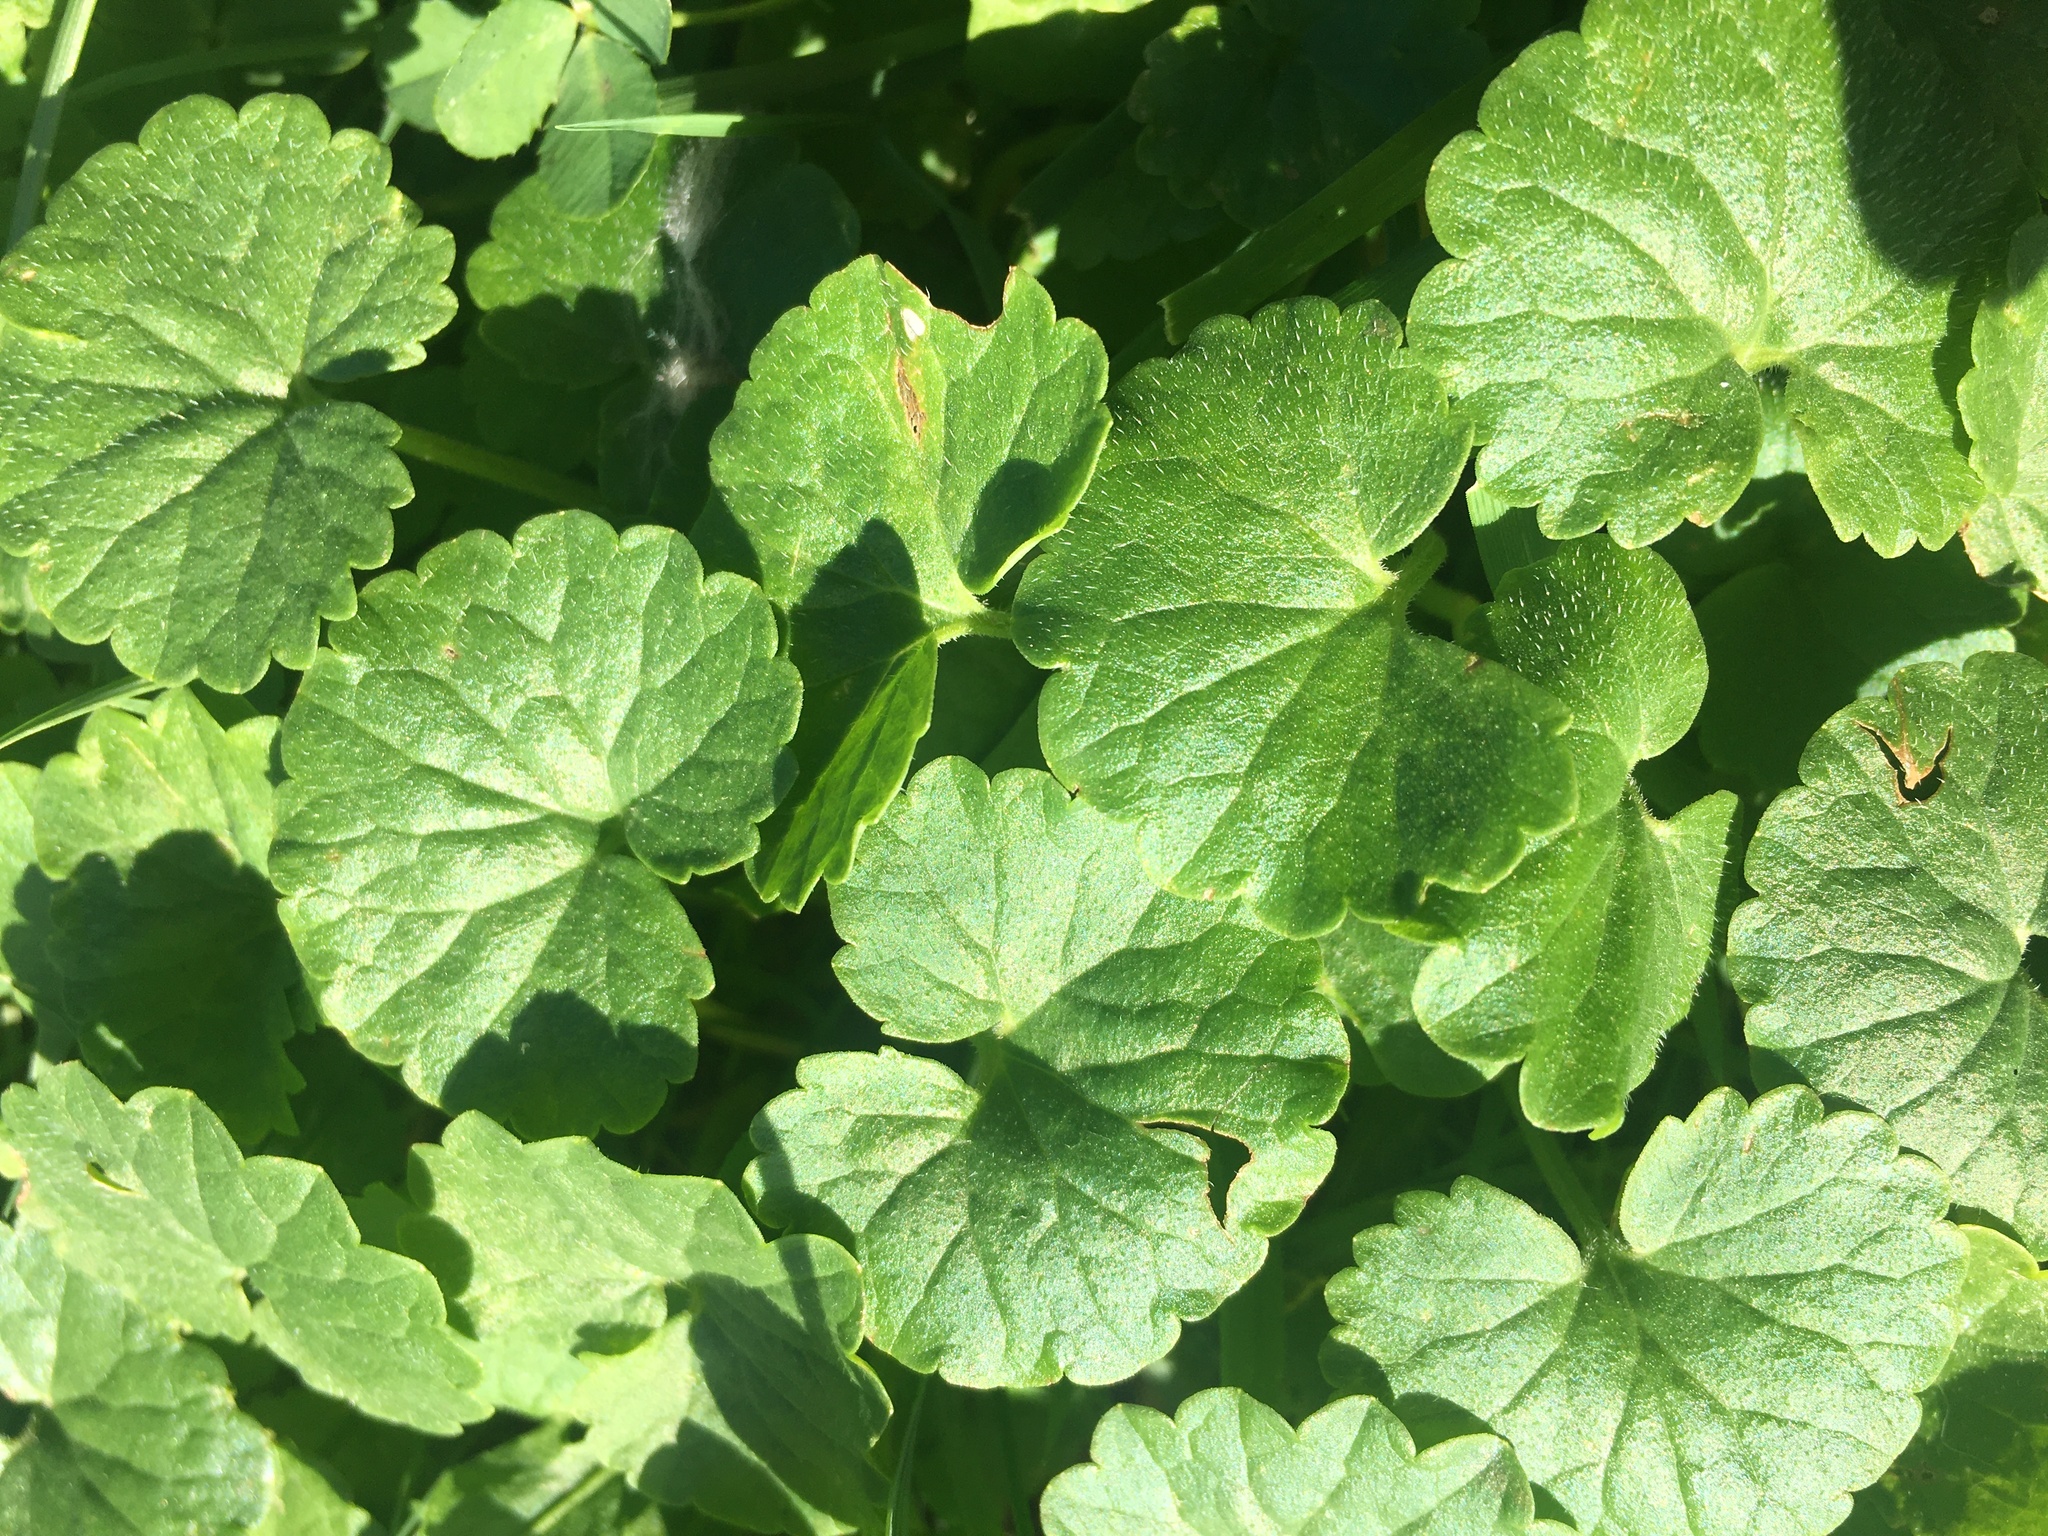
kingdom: Plantae
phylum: Tracheophyta
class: Magnoliopsida
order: Lamiales
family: Lamiaceae
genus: Glechoma
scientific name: Glechoma hederacea
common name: Ground ivy
